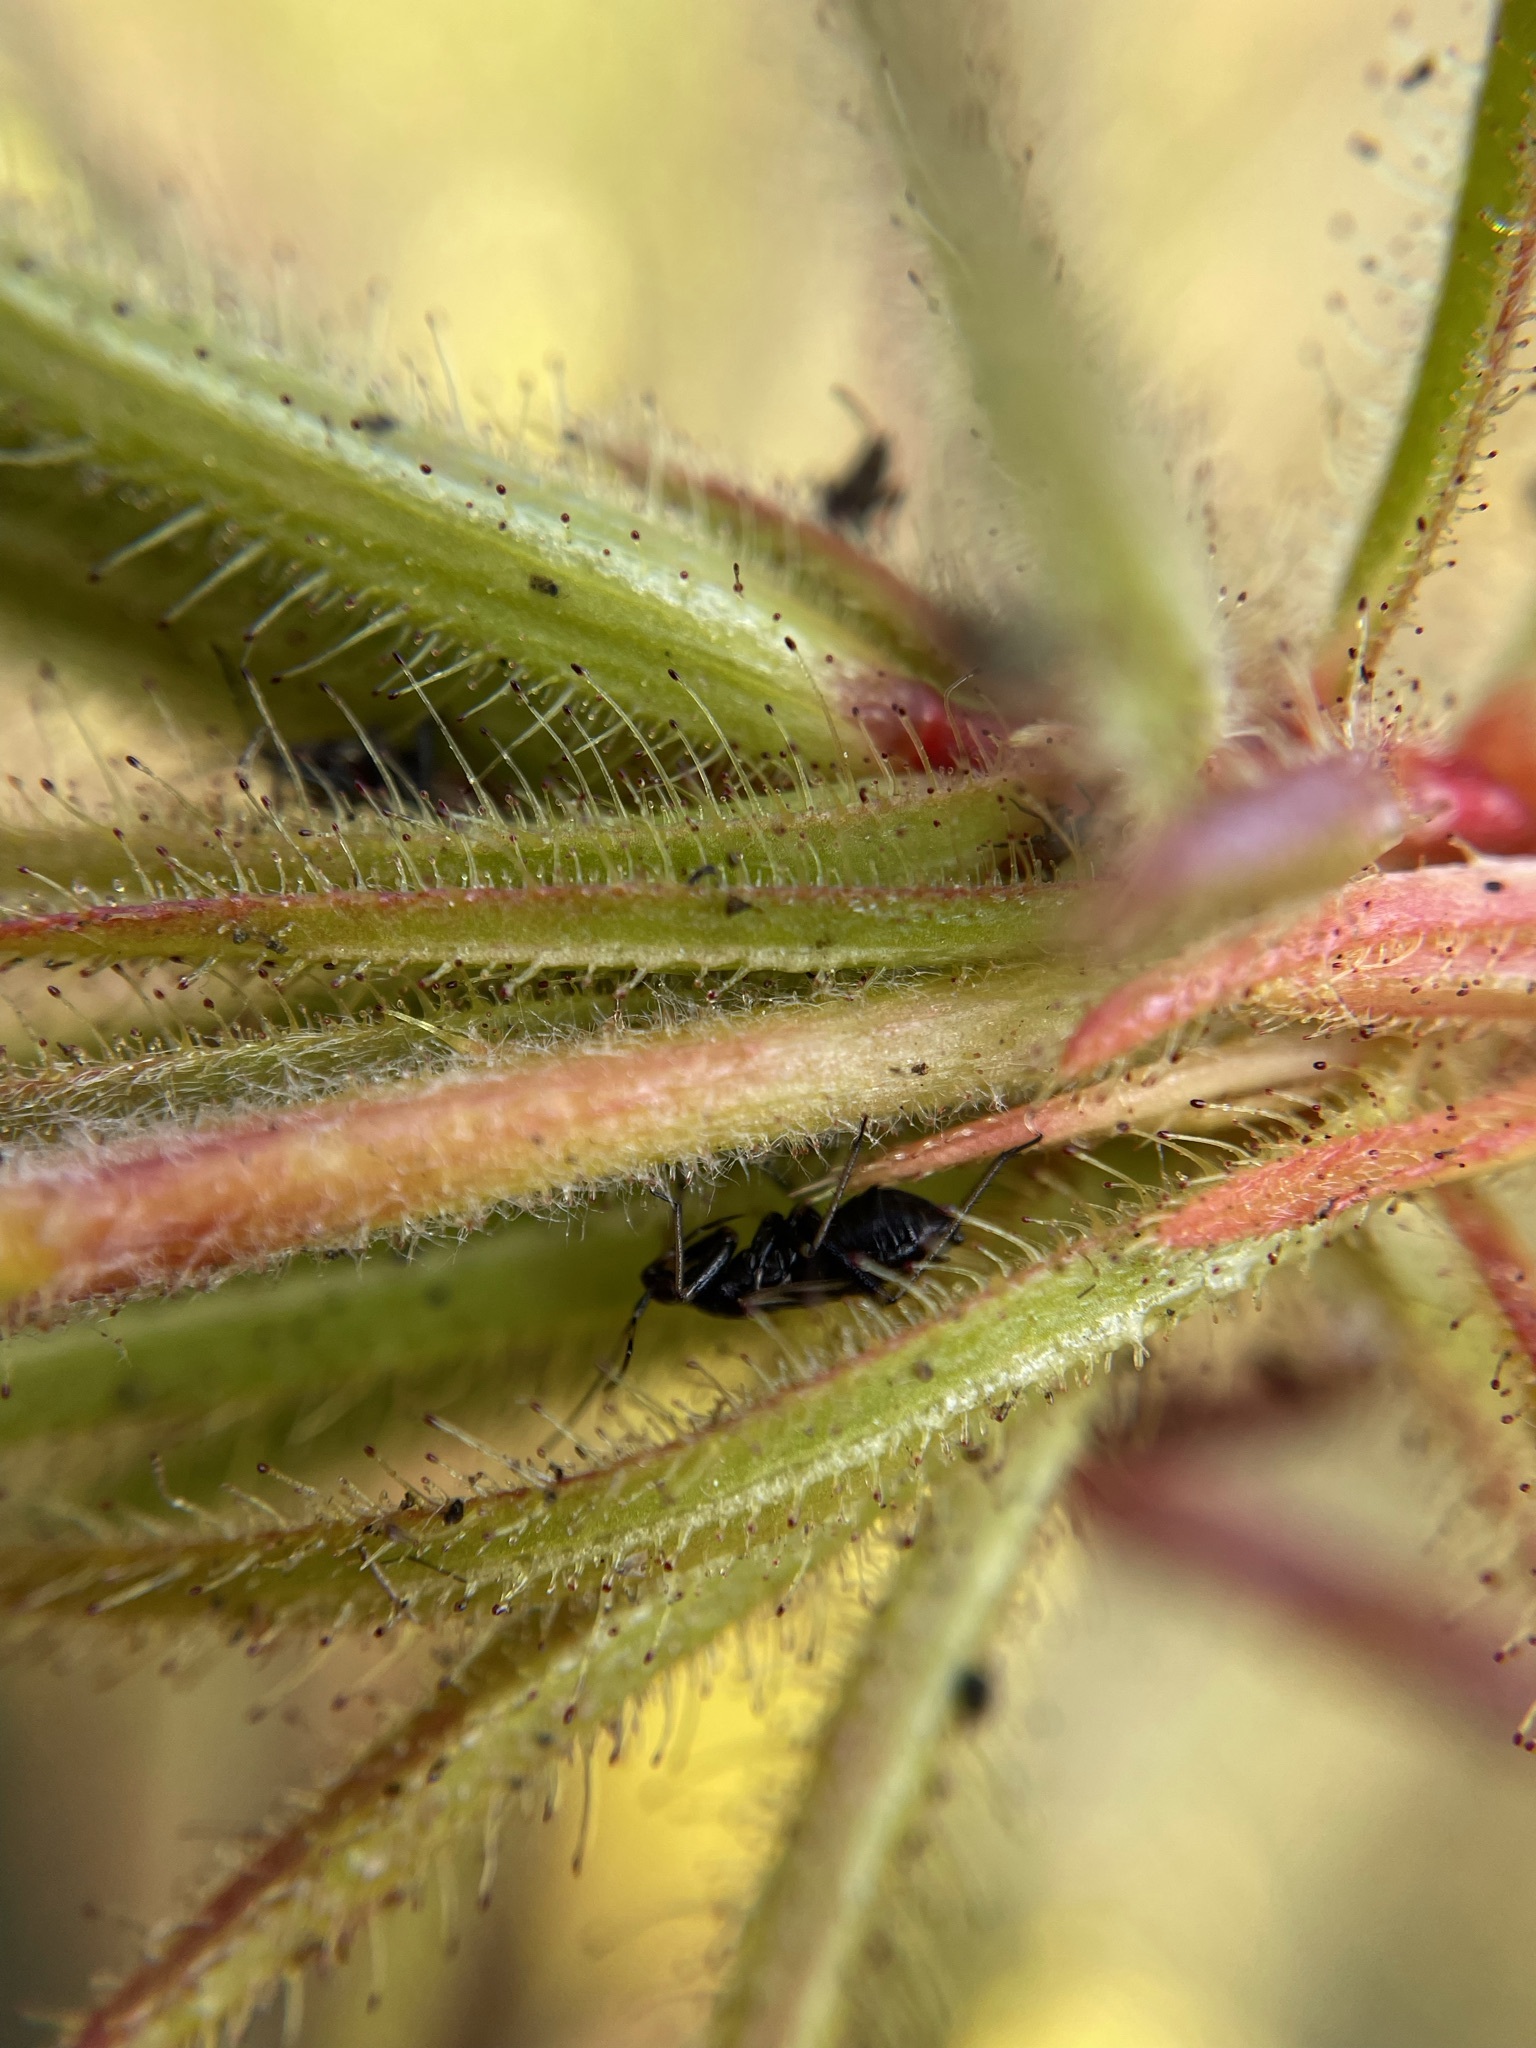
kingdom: Plantae
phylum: Tracheophyta
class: Magnoliopsida
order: Ericales
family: Roridulaceae
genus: Roridula
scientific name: Roridula gorgonias
